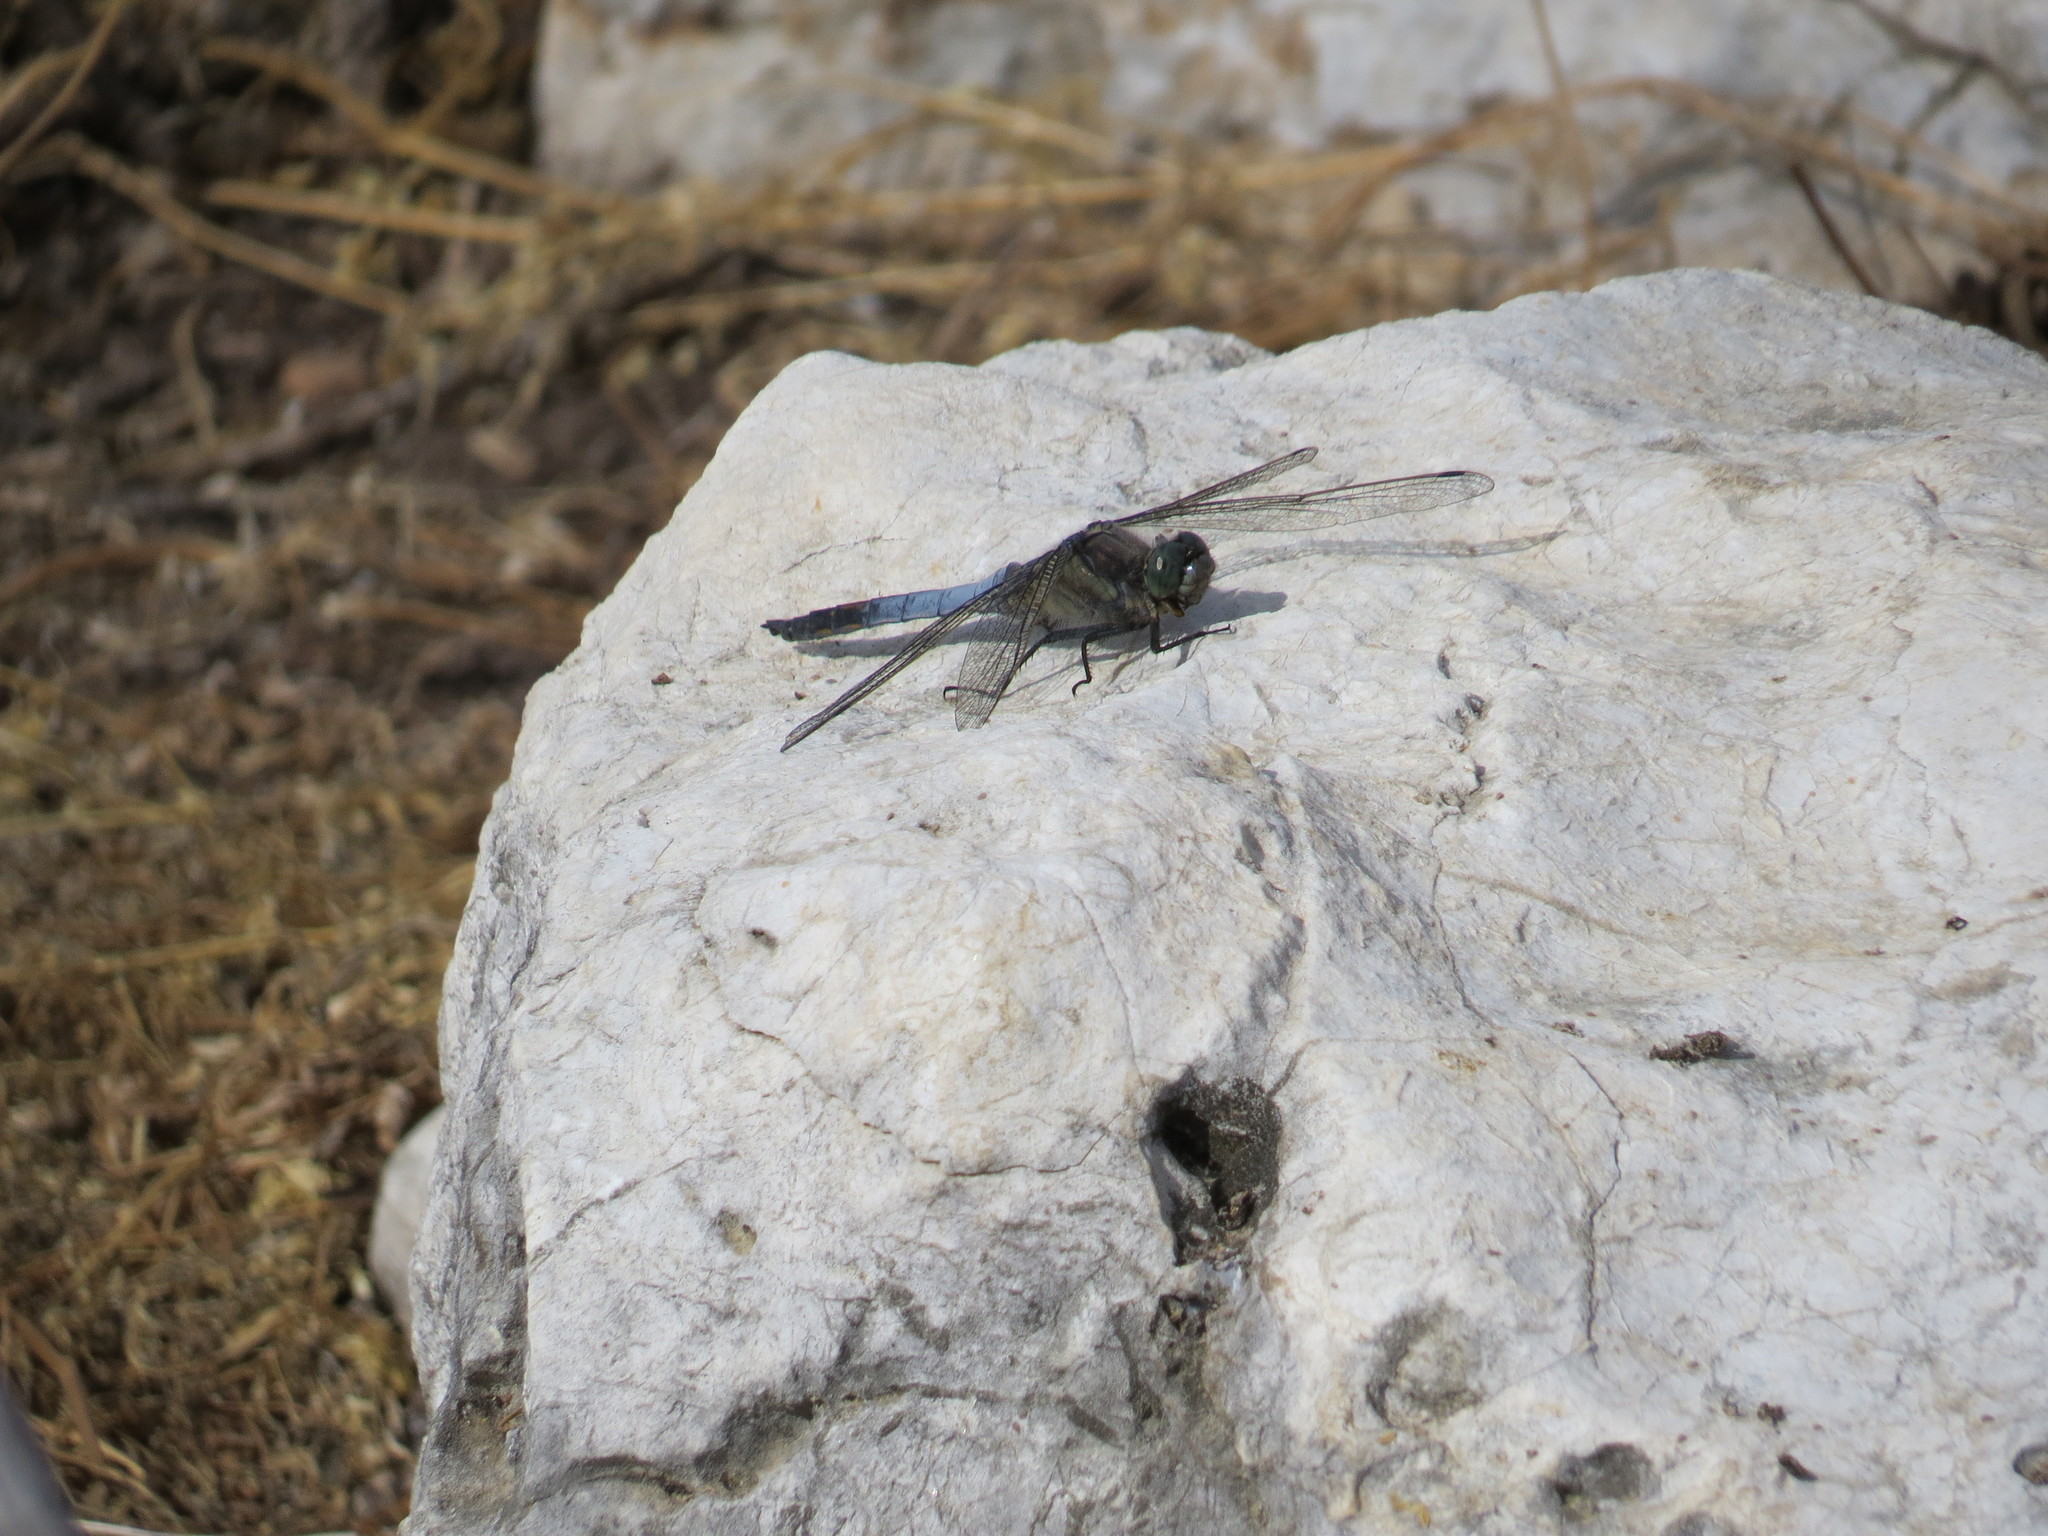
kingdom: Animalia
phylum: Arthropoda
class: Insecta
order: Odonata
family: Libellulidae
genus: Orthetrum
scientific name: Orthetrum cancellatum
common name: Black-tailed skimmer
